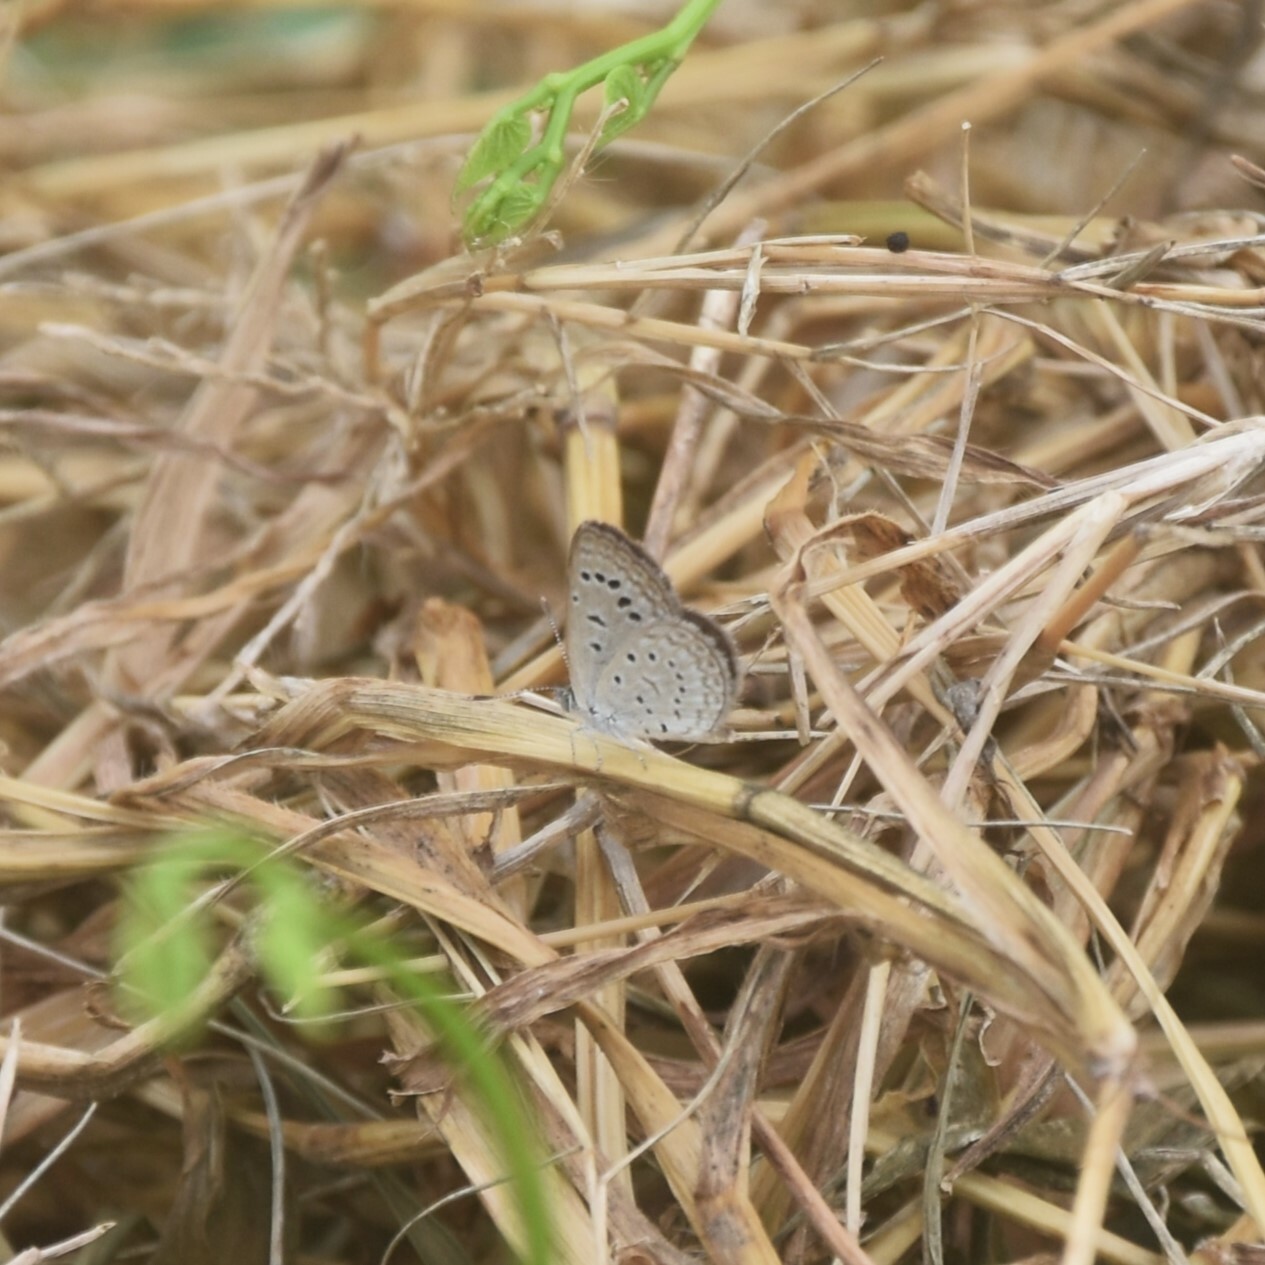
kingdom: Animalia
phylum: Arthropoda
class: Insecta
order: Lepidoptera
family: Lycaenidae
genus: Zizeeria
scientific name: Zizeeria karsandra
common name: Dark grass blue
